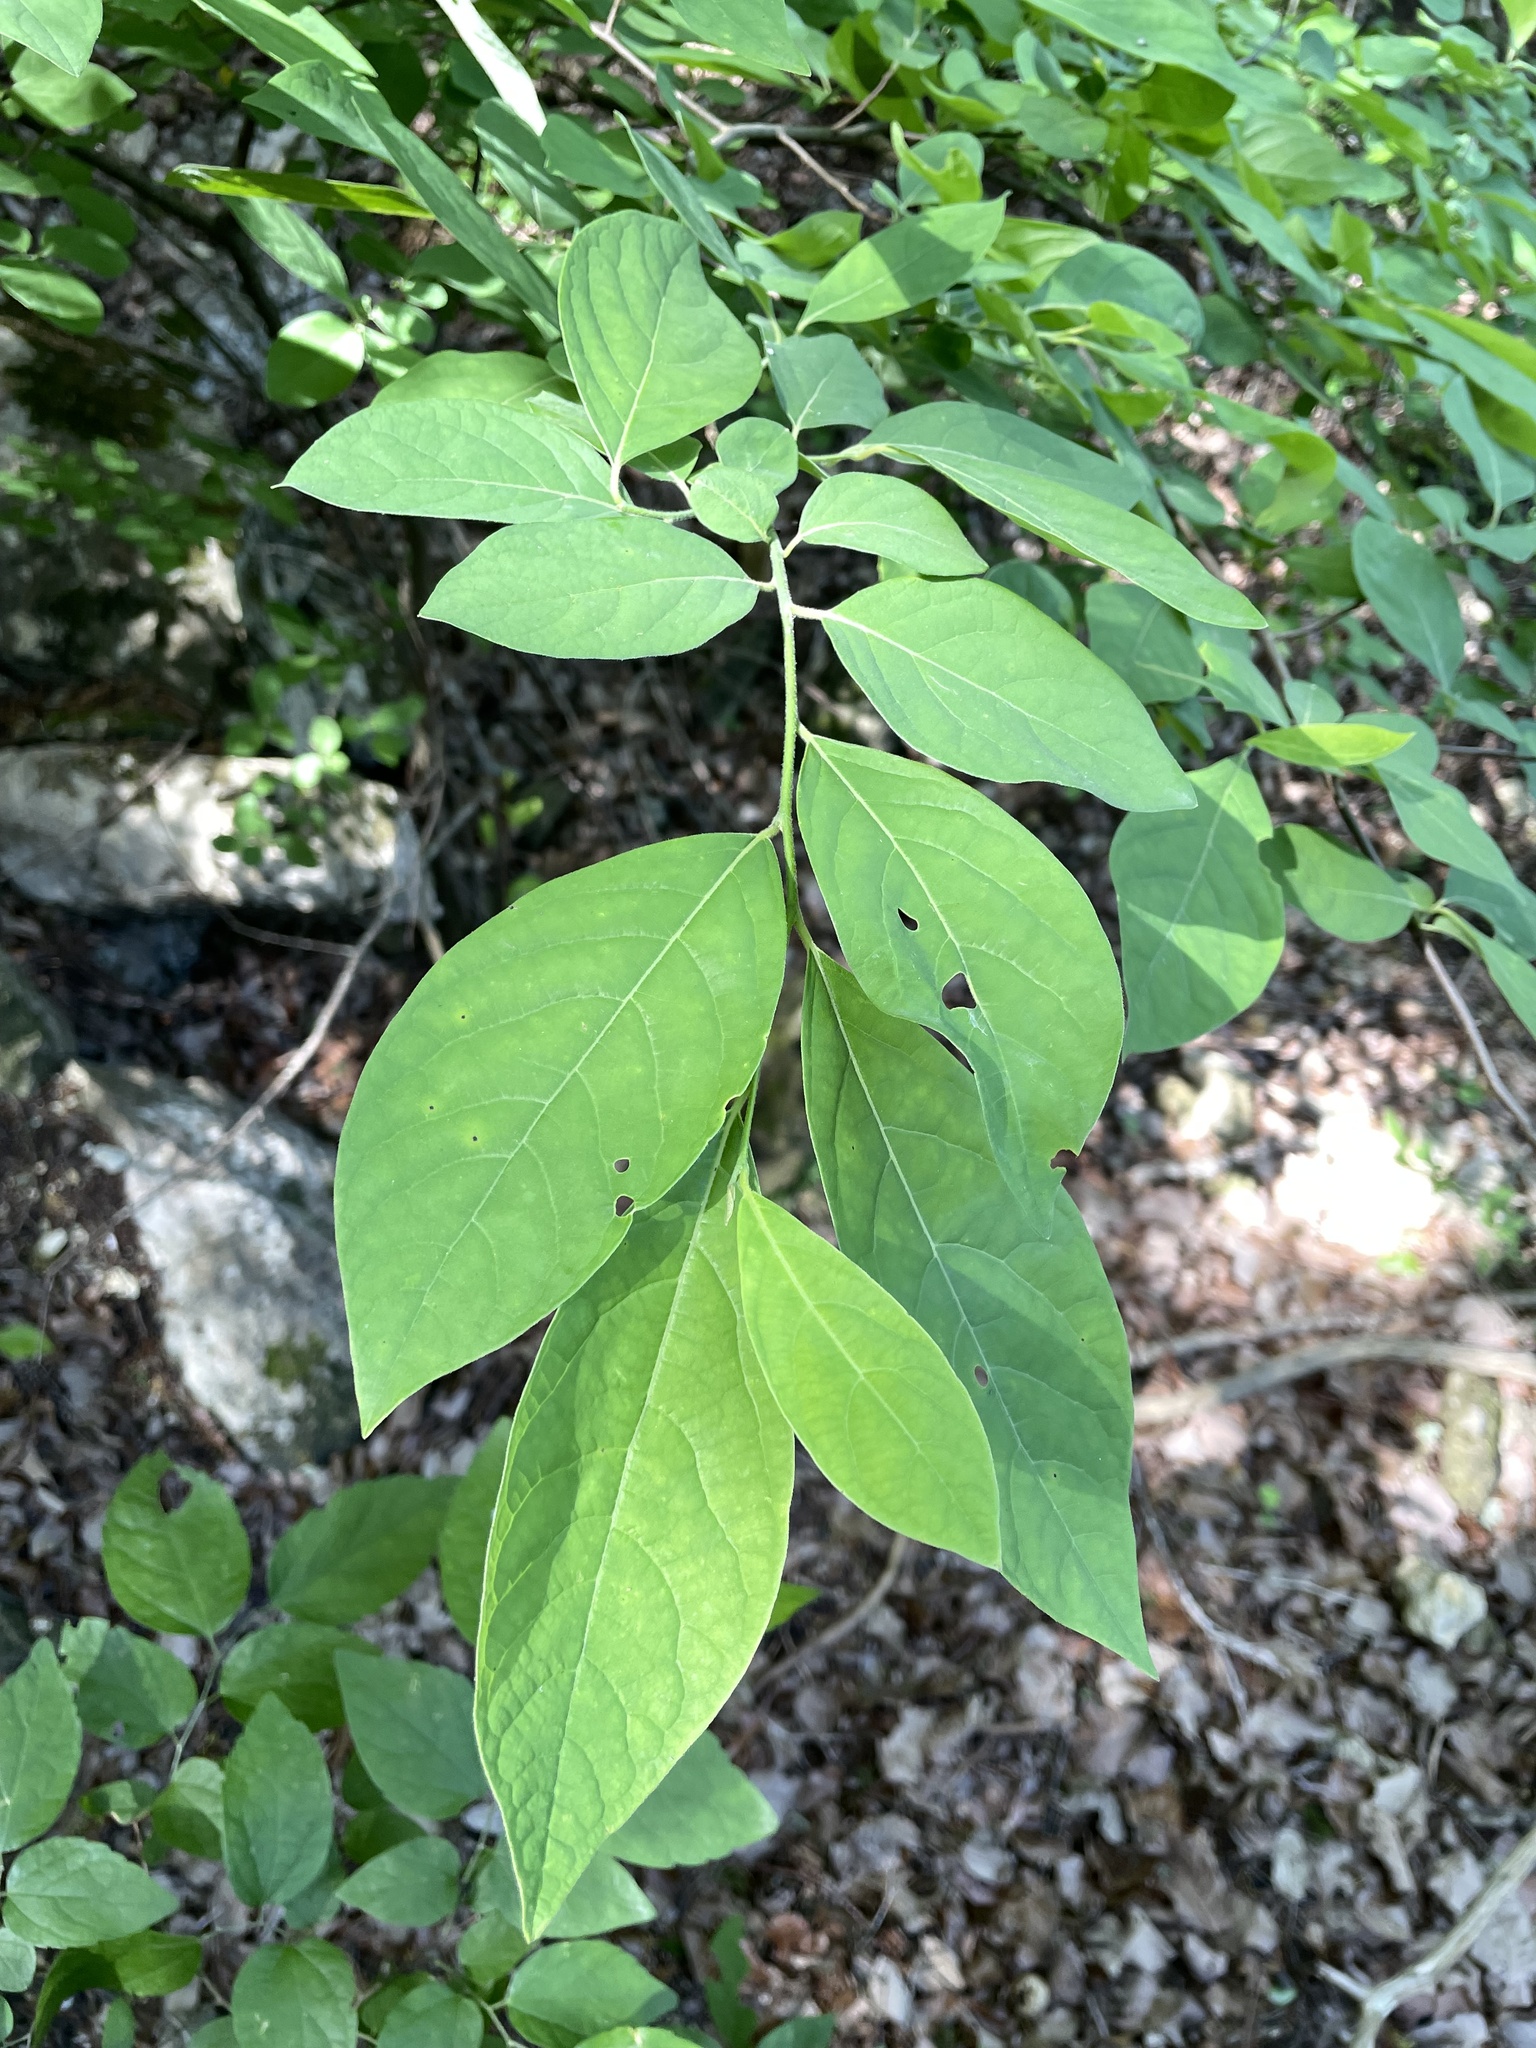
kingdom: Plantae
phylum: Tracheophyta
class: Magnoliopsida
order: Laurales
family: Lauraceae
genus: Lindera
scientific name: Lindera benzoin
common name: Spicebush
